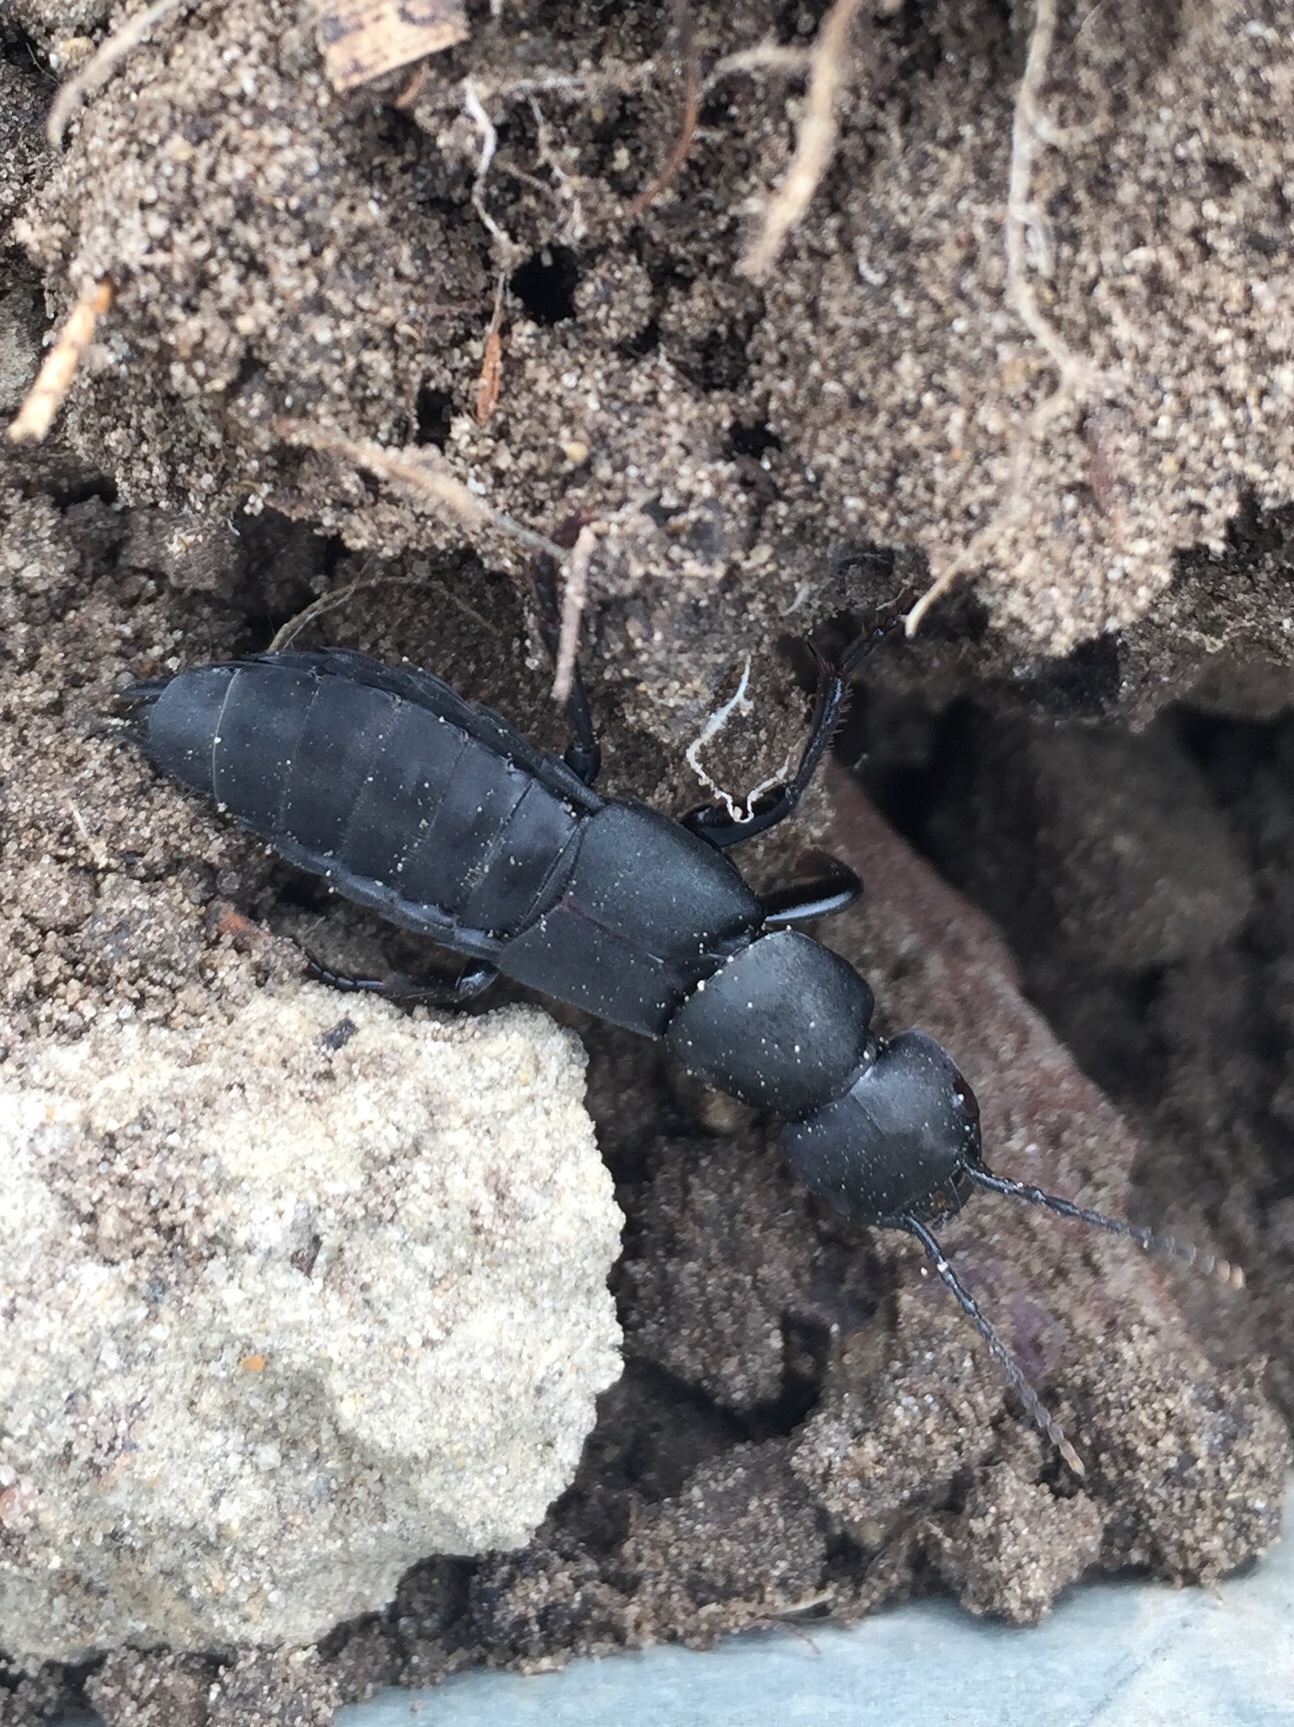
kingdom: Animalia
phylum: Arthropoda
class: Insecta
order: Coleoptera
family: Staphylinidae
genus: Ocypus
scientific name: Ocypus olens
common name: Devil's coach-horse
